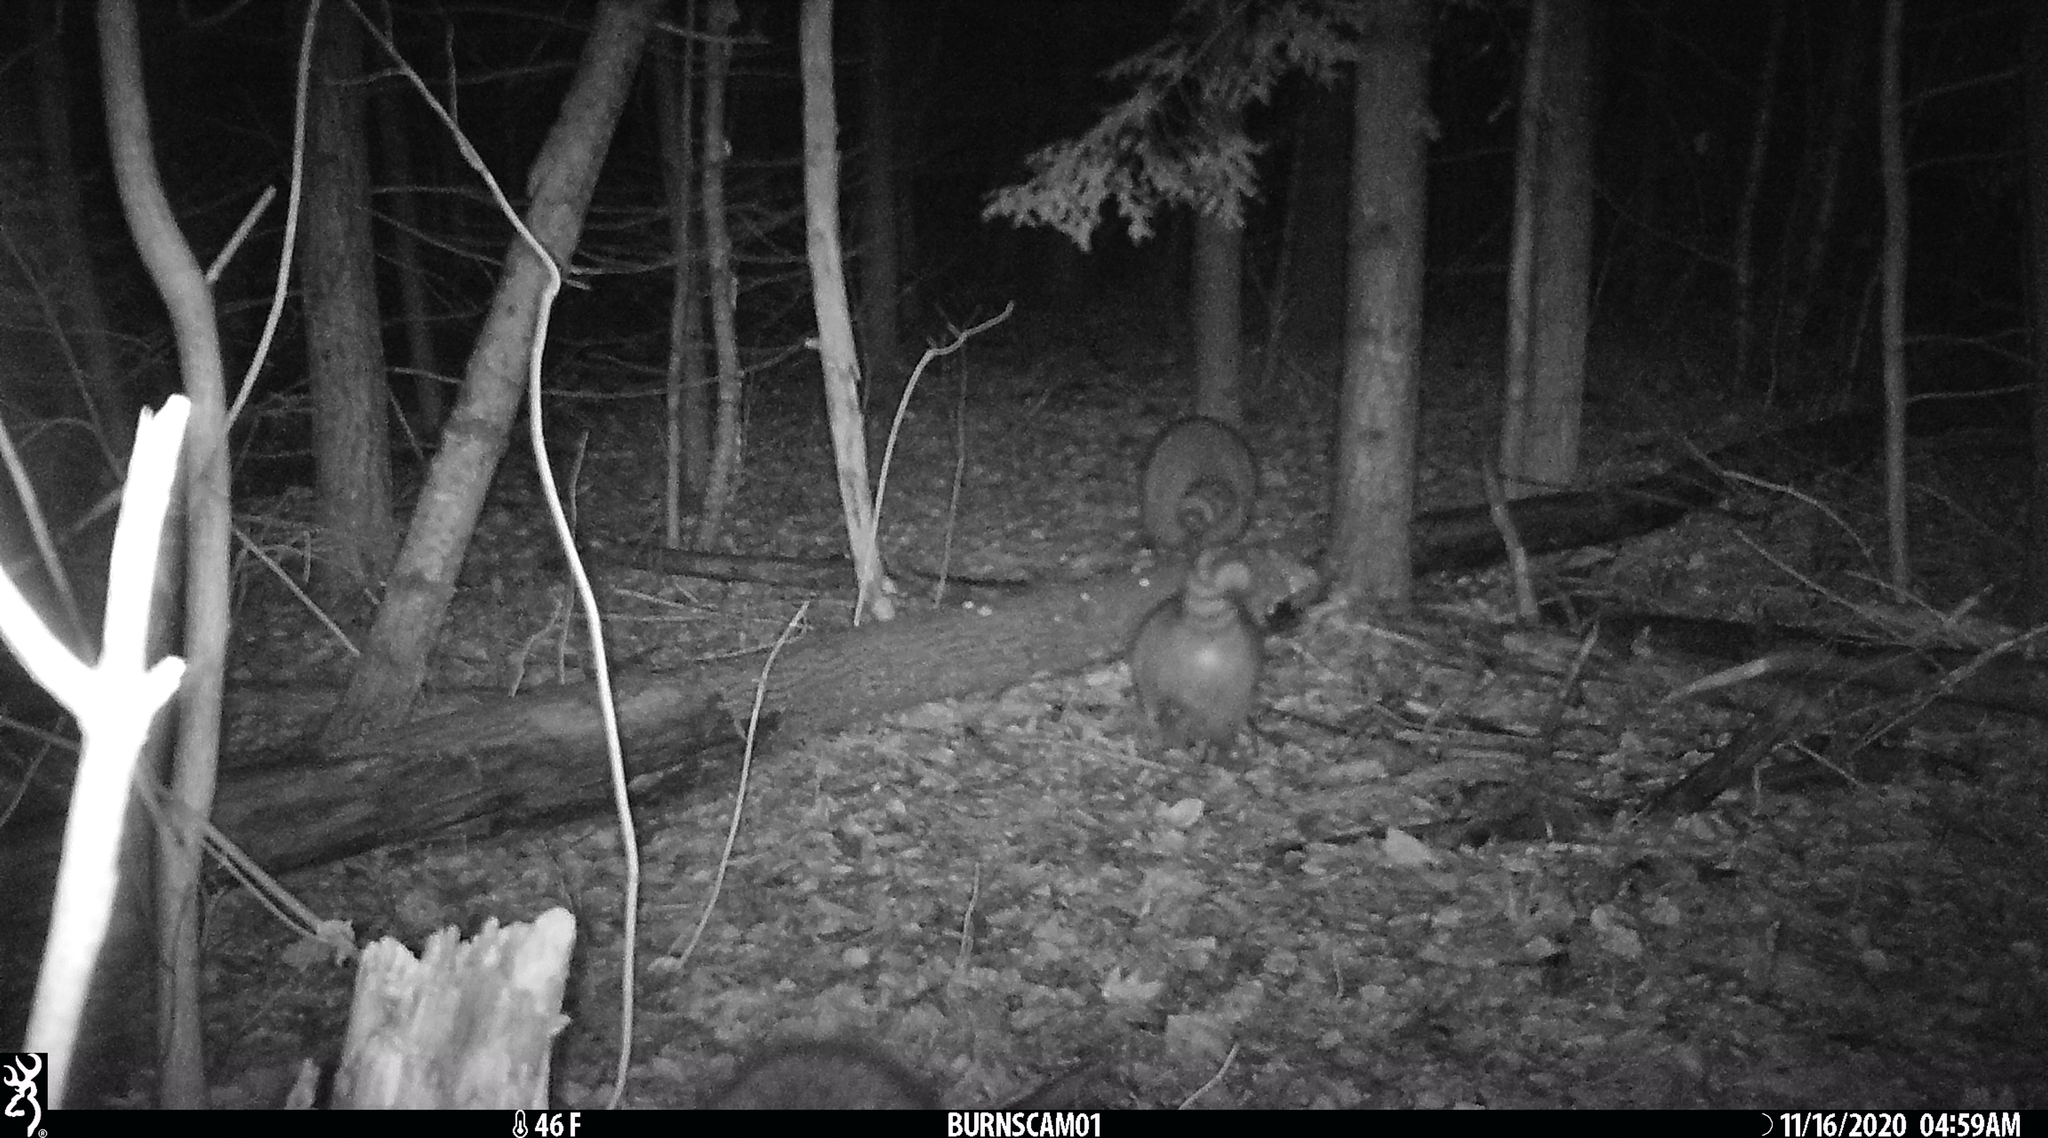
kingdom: Animalia
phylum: Chordata
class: Mammalia
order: Carnivora
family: Procyonidae
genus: Procyon
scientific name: Procyon lotor
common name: Raccoon
